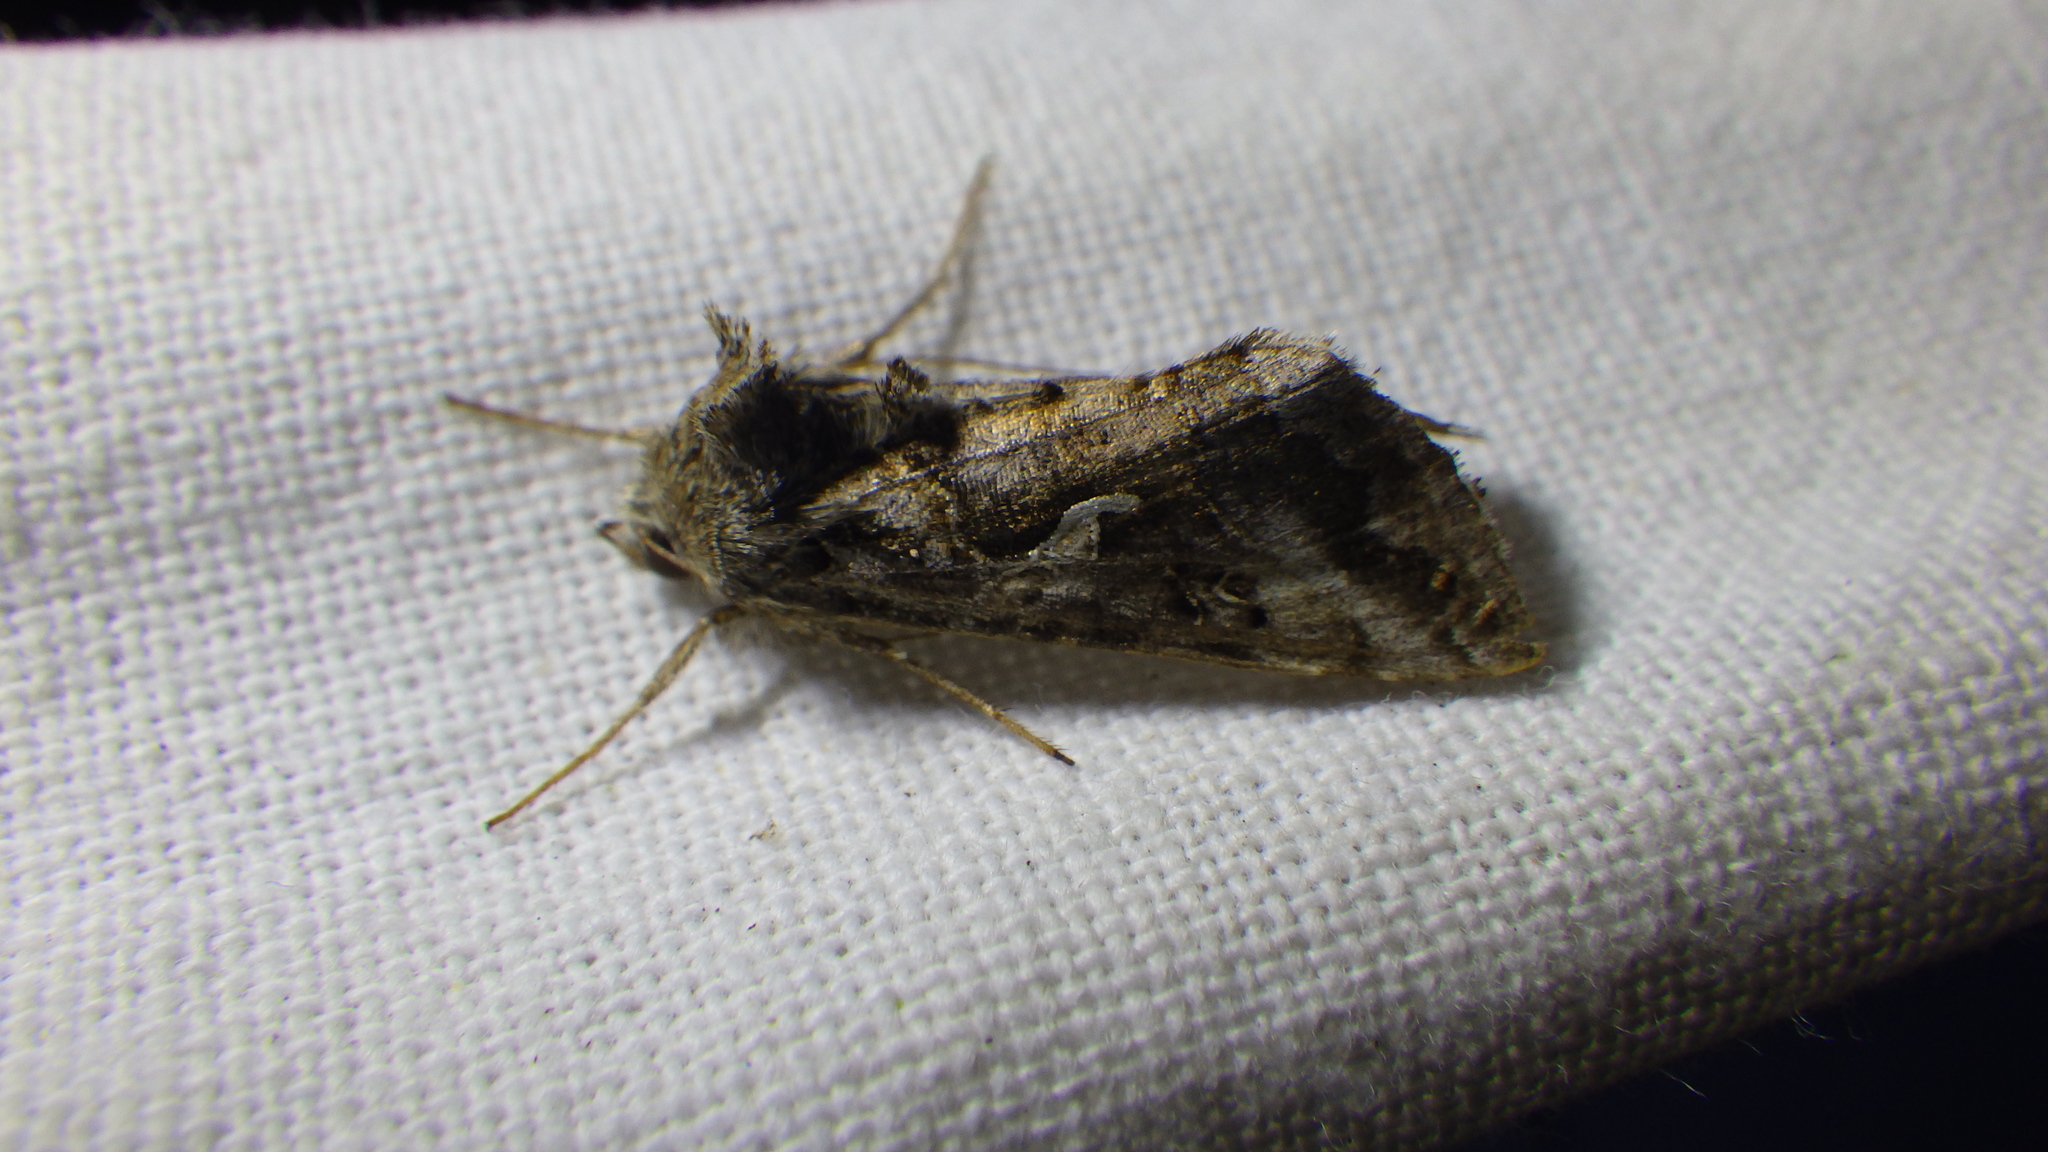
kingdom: Animalia
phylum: Arthropoda
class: Insecta
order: Lepidoptera
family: Noctuidae
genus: Autographa
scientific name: Autographa gamma
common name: Silver y
